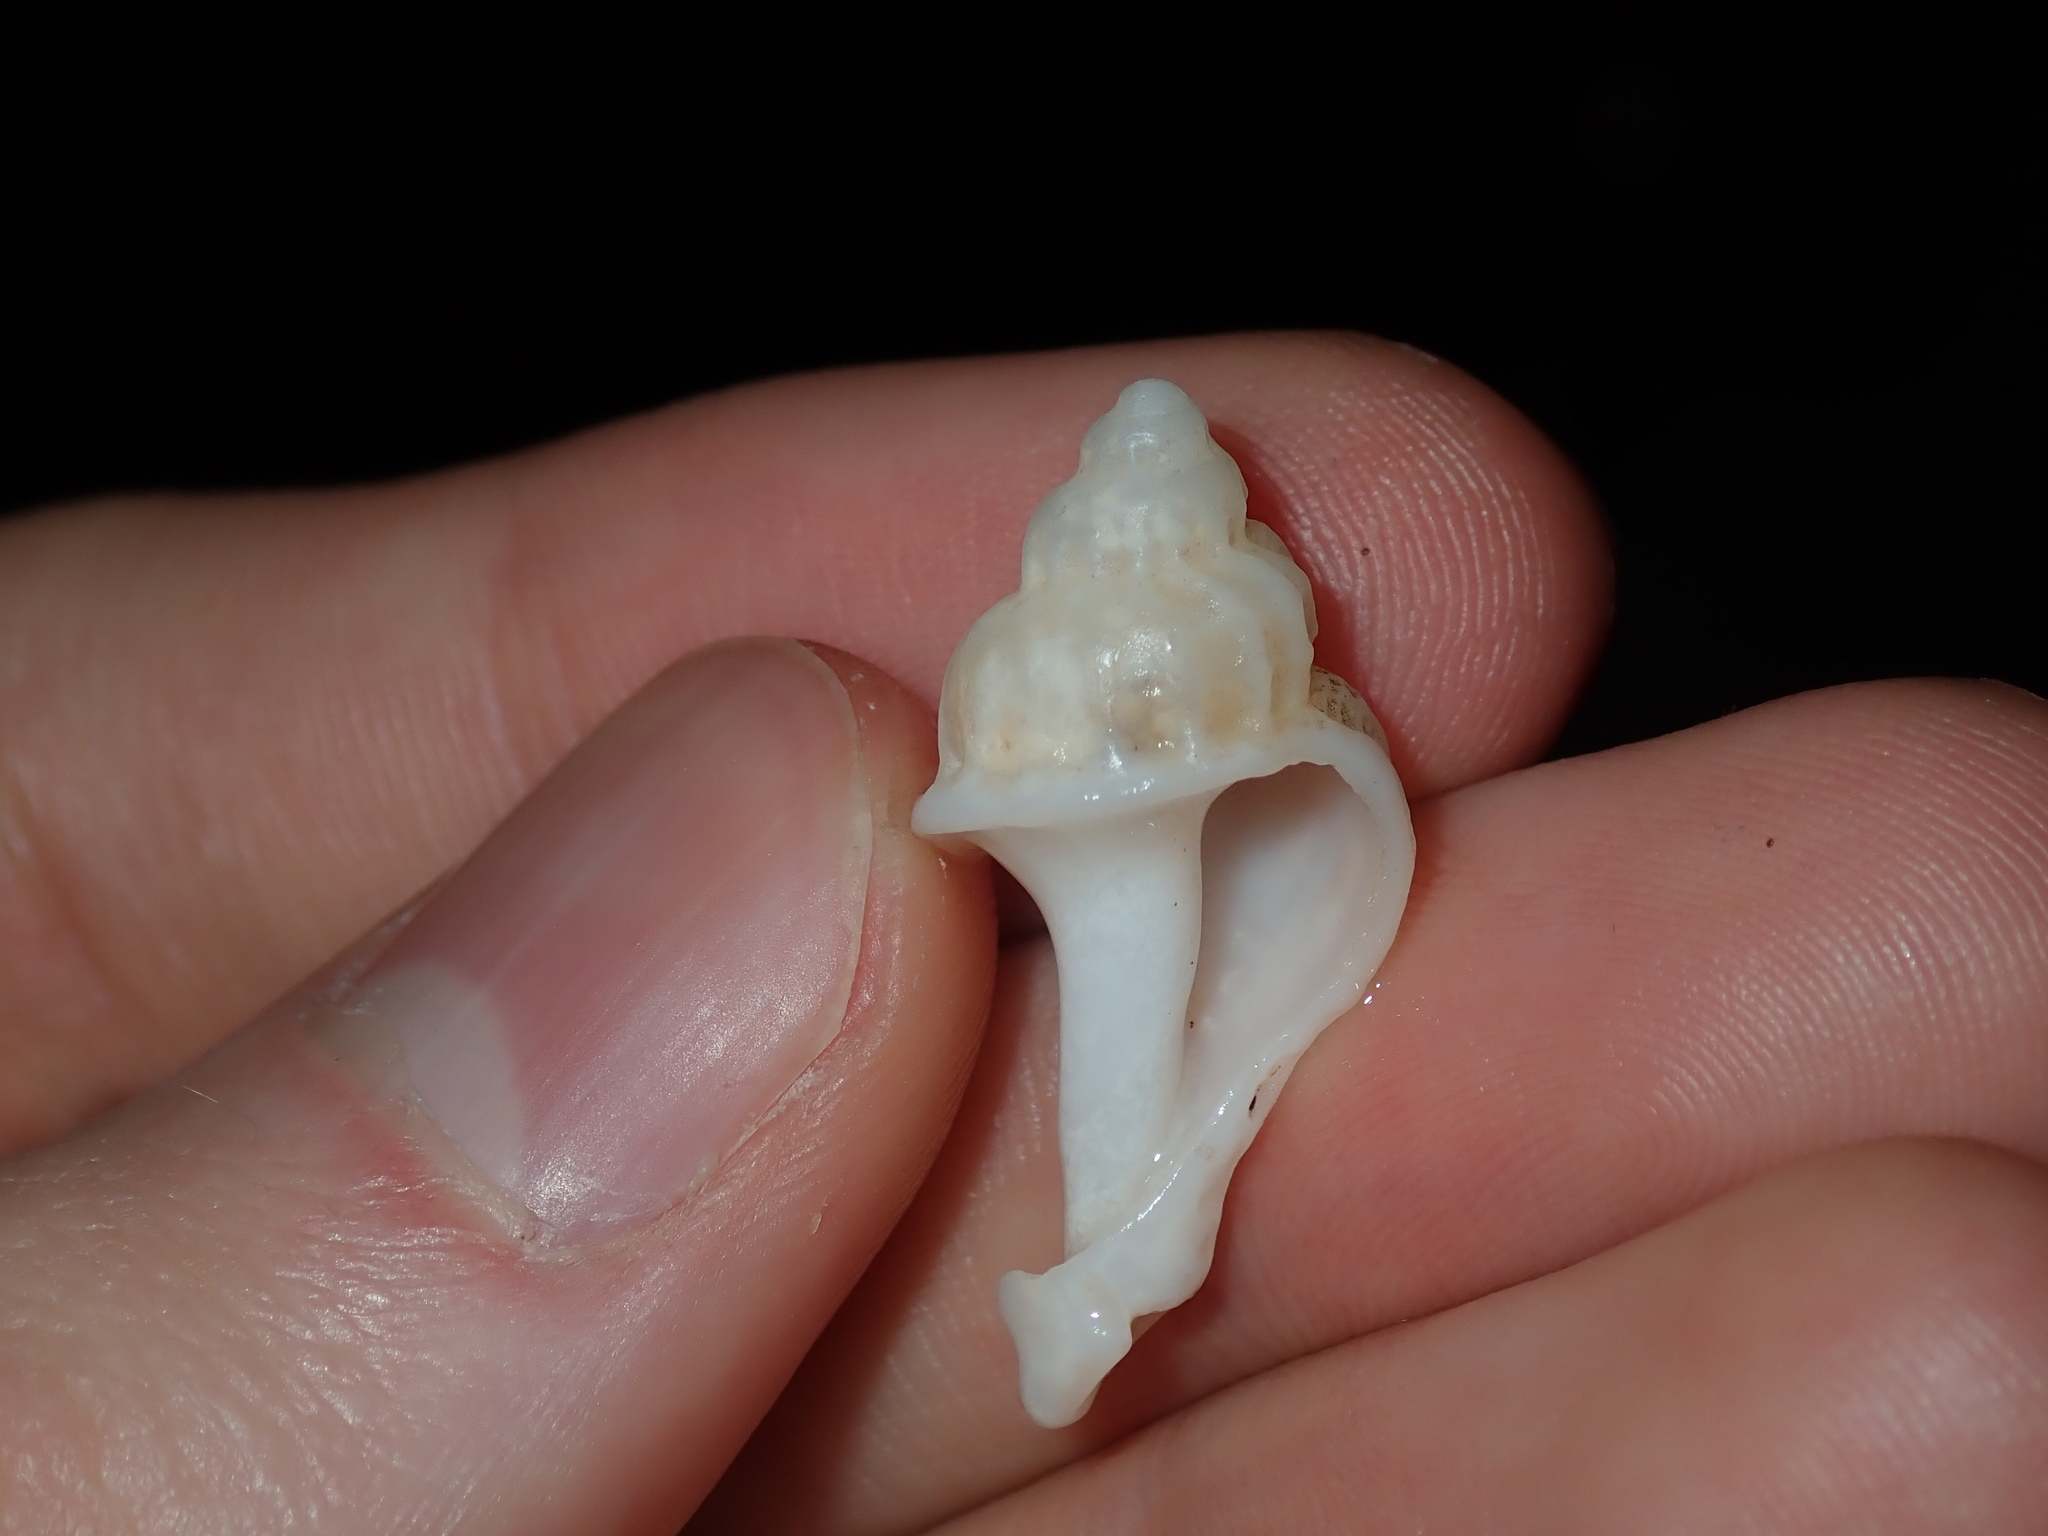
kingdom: Animalia
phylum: Mollusca
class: Gastropoda
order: Neogastropoda
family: Muricidae
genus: Coralliophila
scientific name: Coralliophila squamosissima
